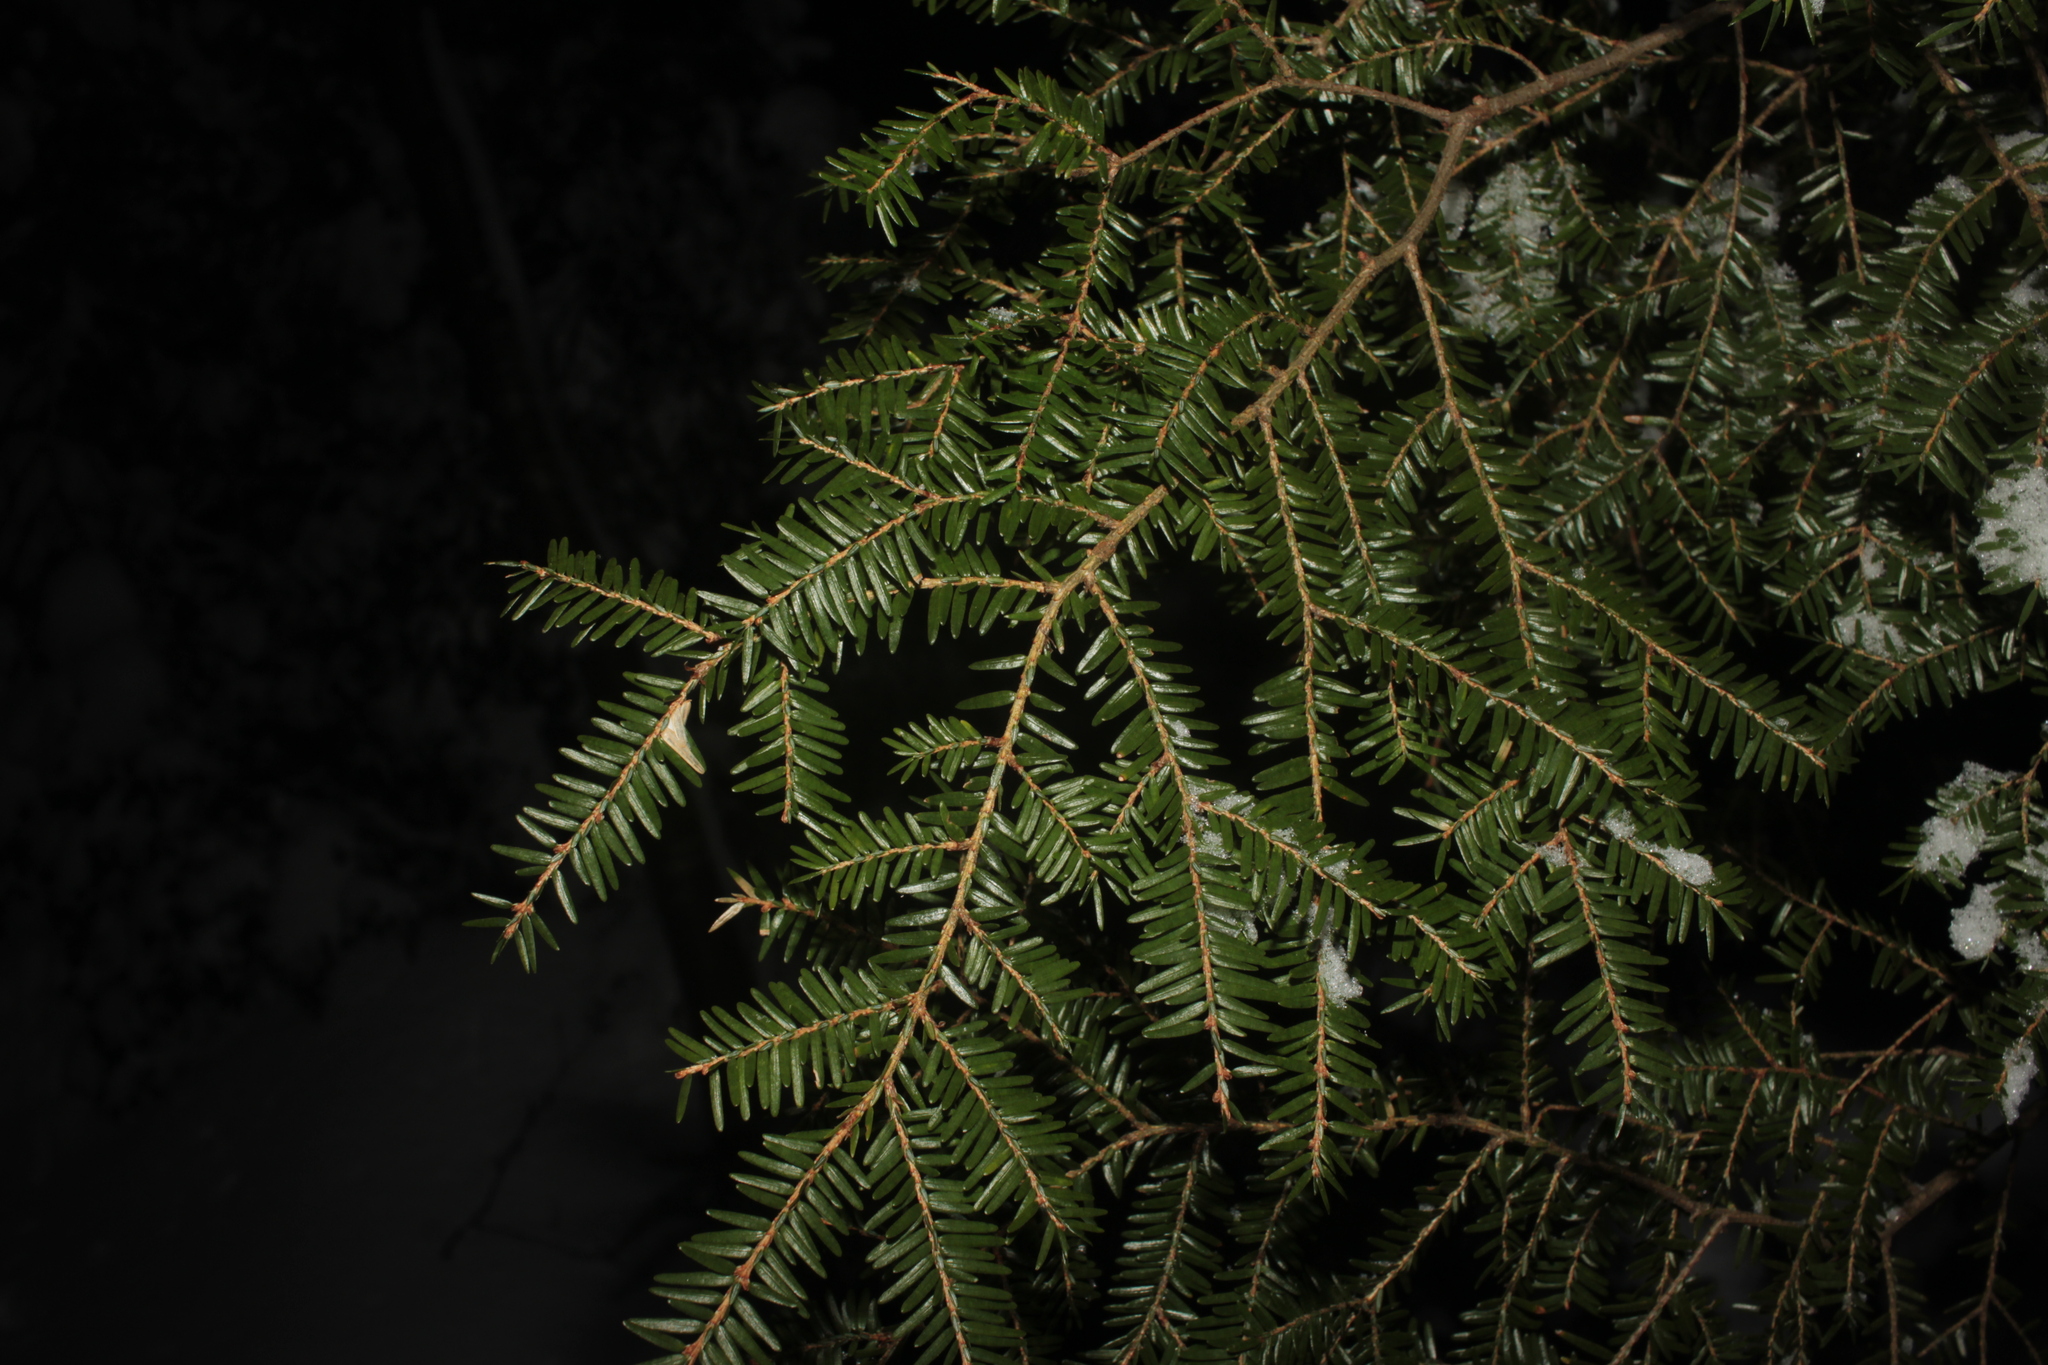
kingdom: Plantae
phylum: Tracheophyta
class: Pinopsida
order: Pinales
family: Pinaceae
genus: Tsuga
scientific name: Tsuga canadensis
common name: Eastern hemlock
